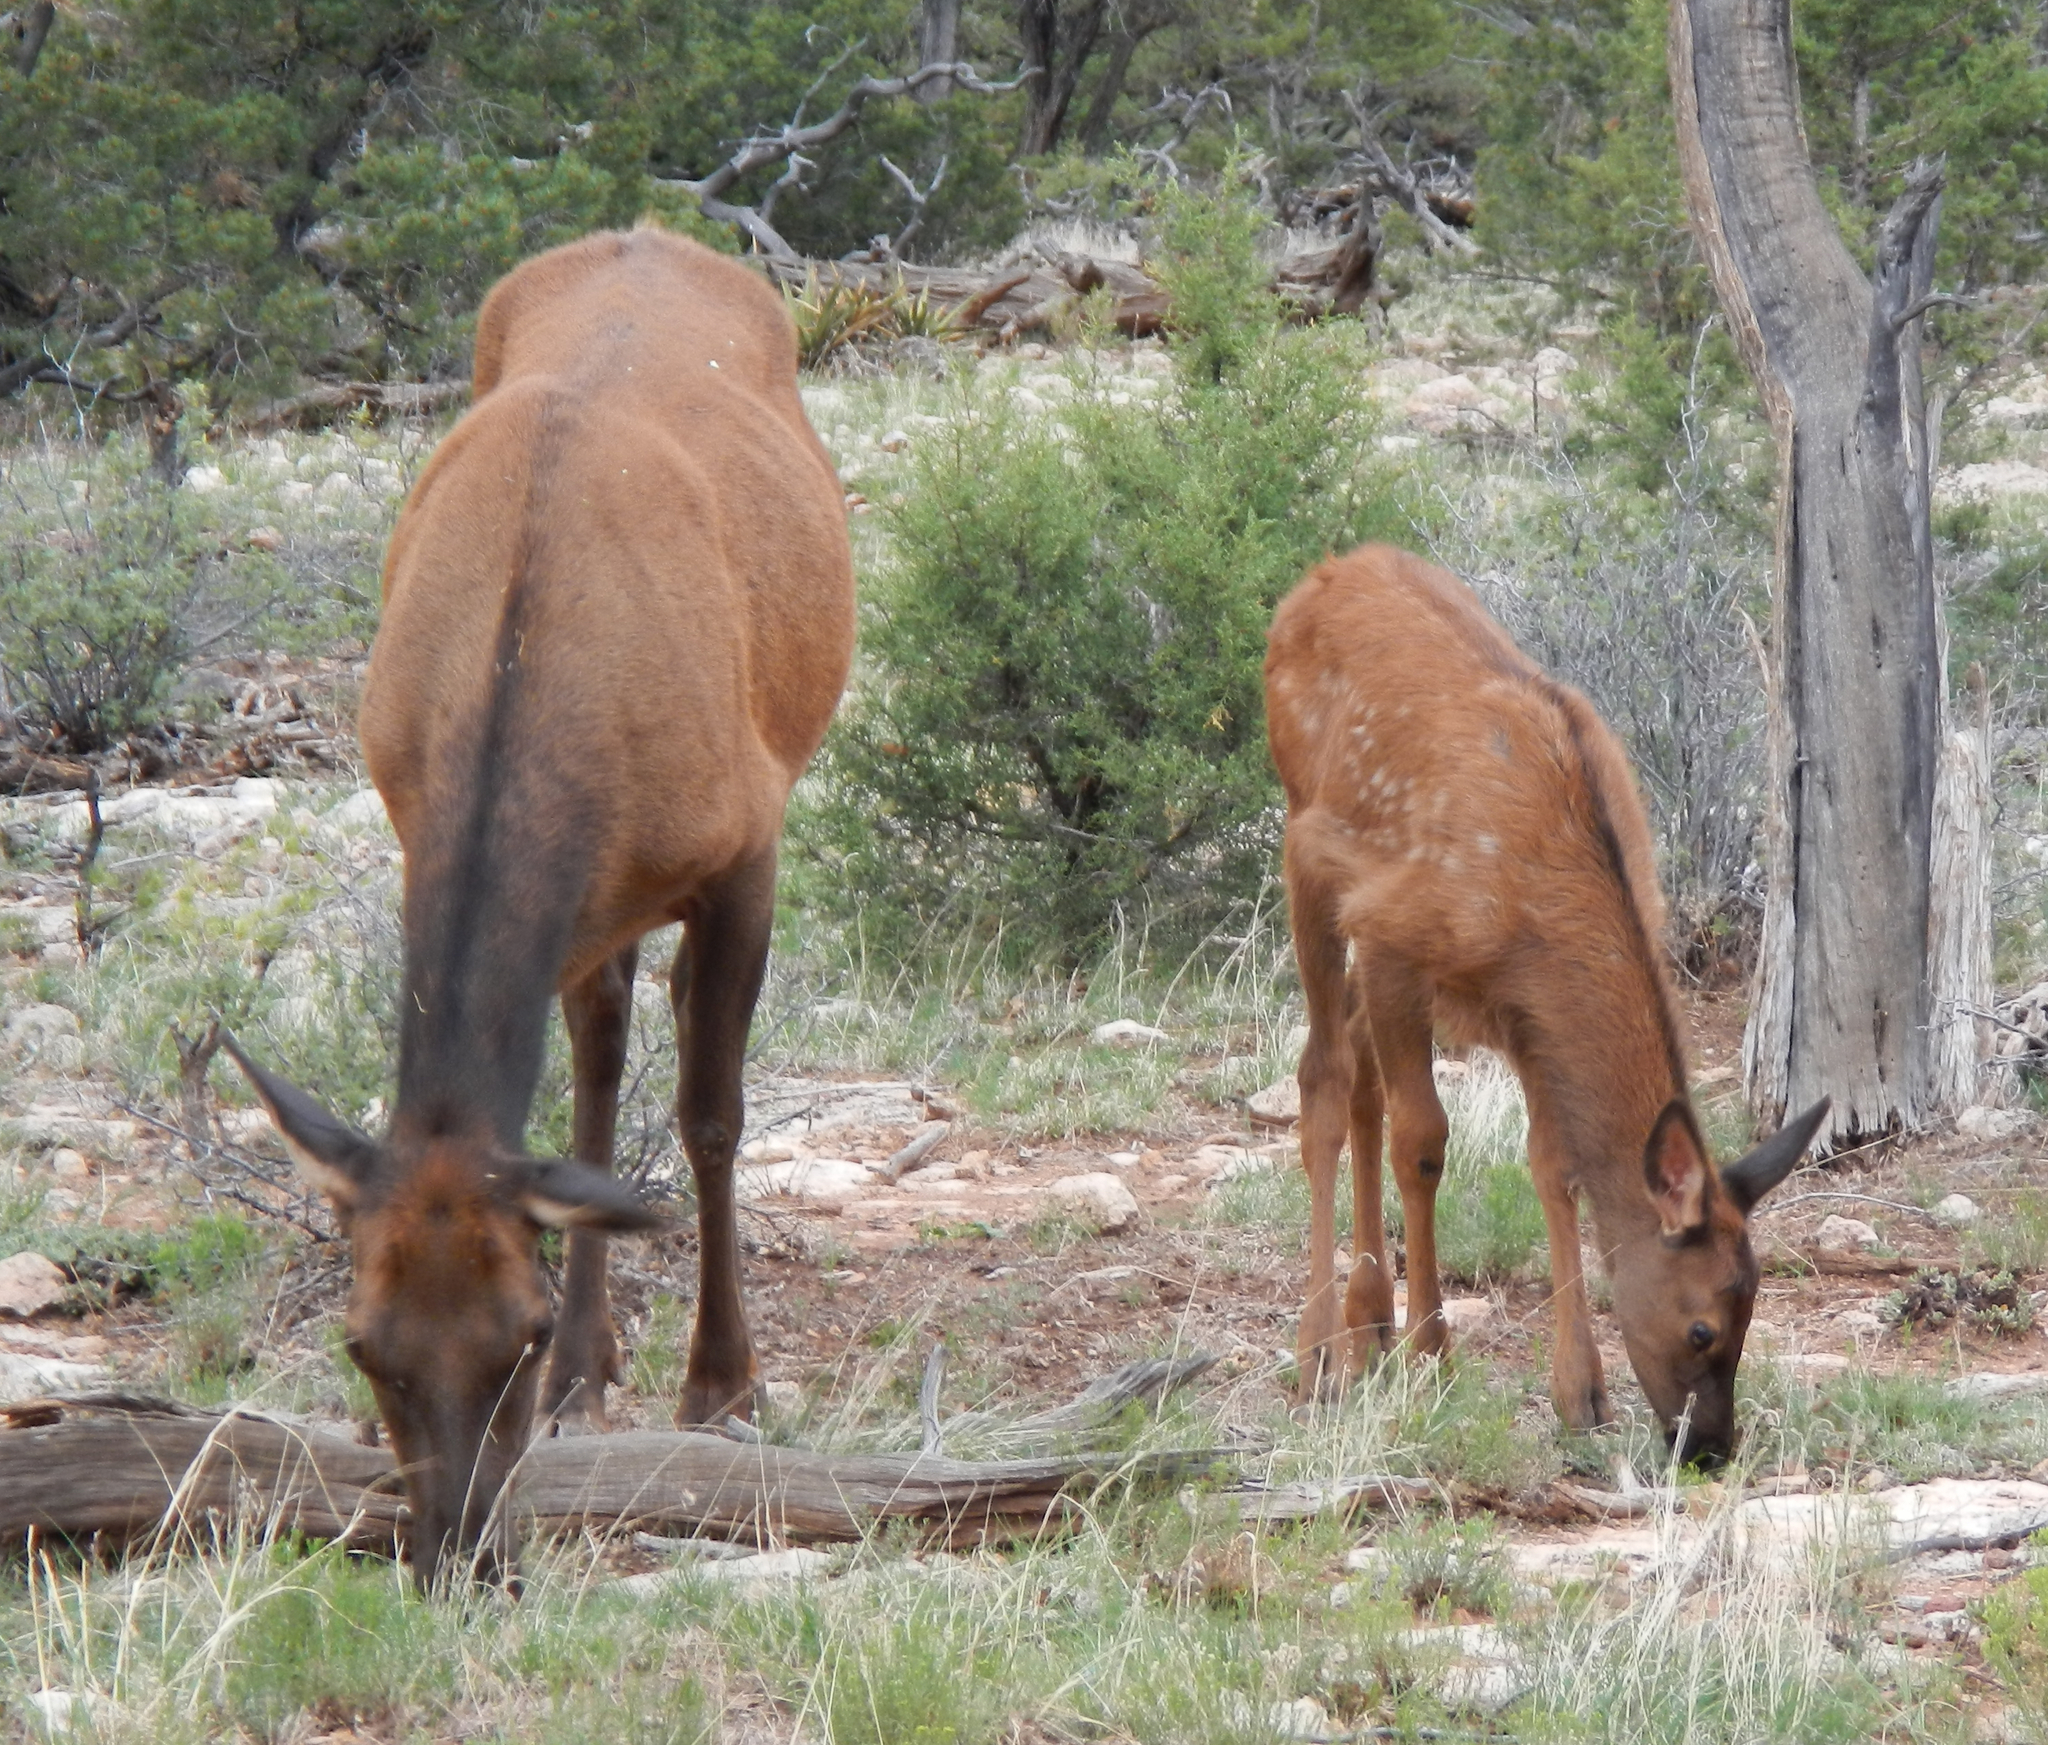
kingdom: Animalia
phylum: Chordata
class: Mammalia
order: Artiodactyla
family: Cervidae
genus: Cervus
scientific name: Cervus elaphus
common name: Red deer
